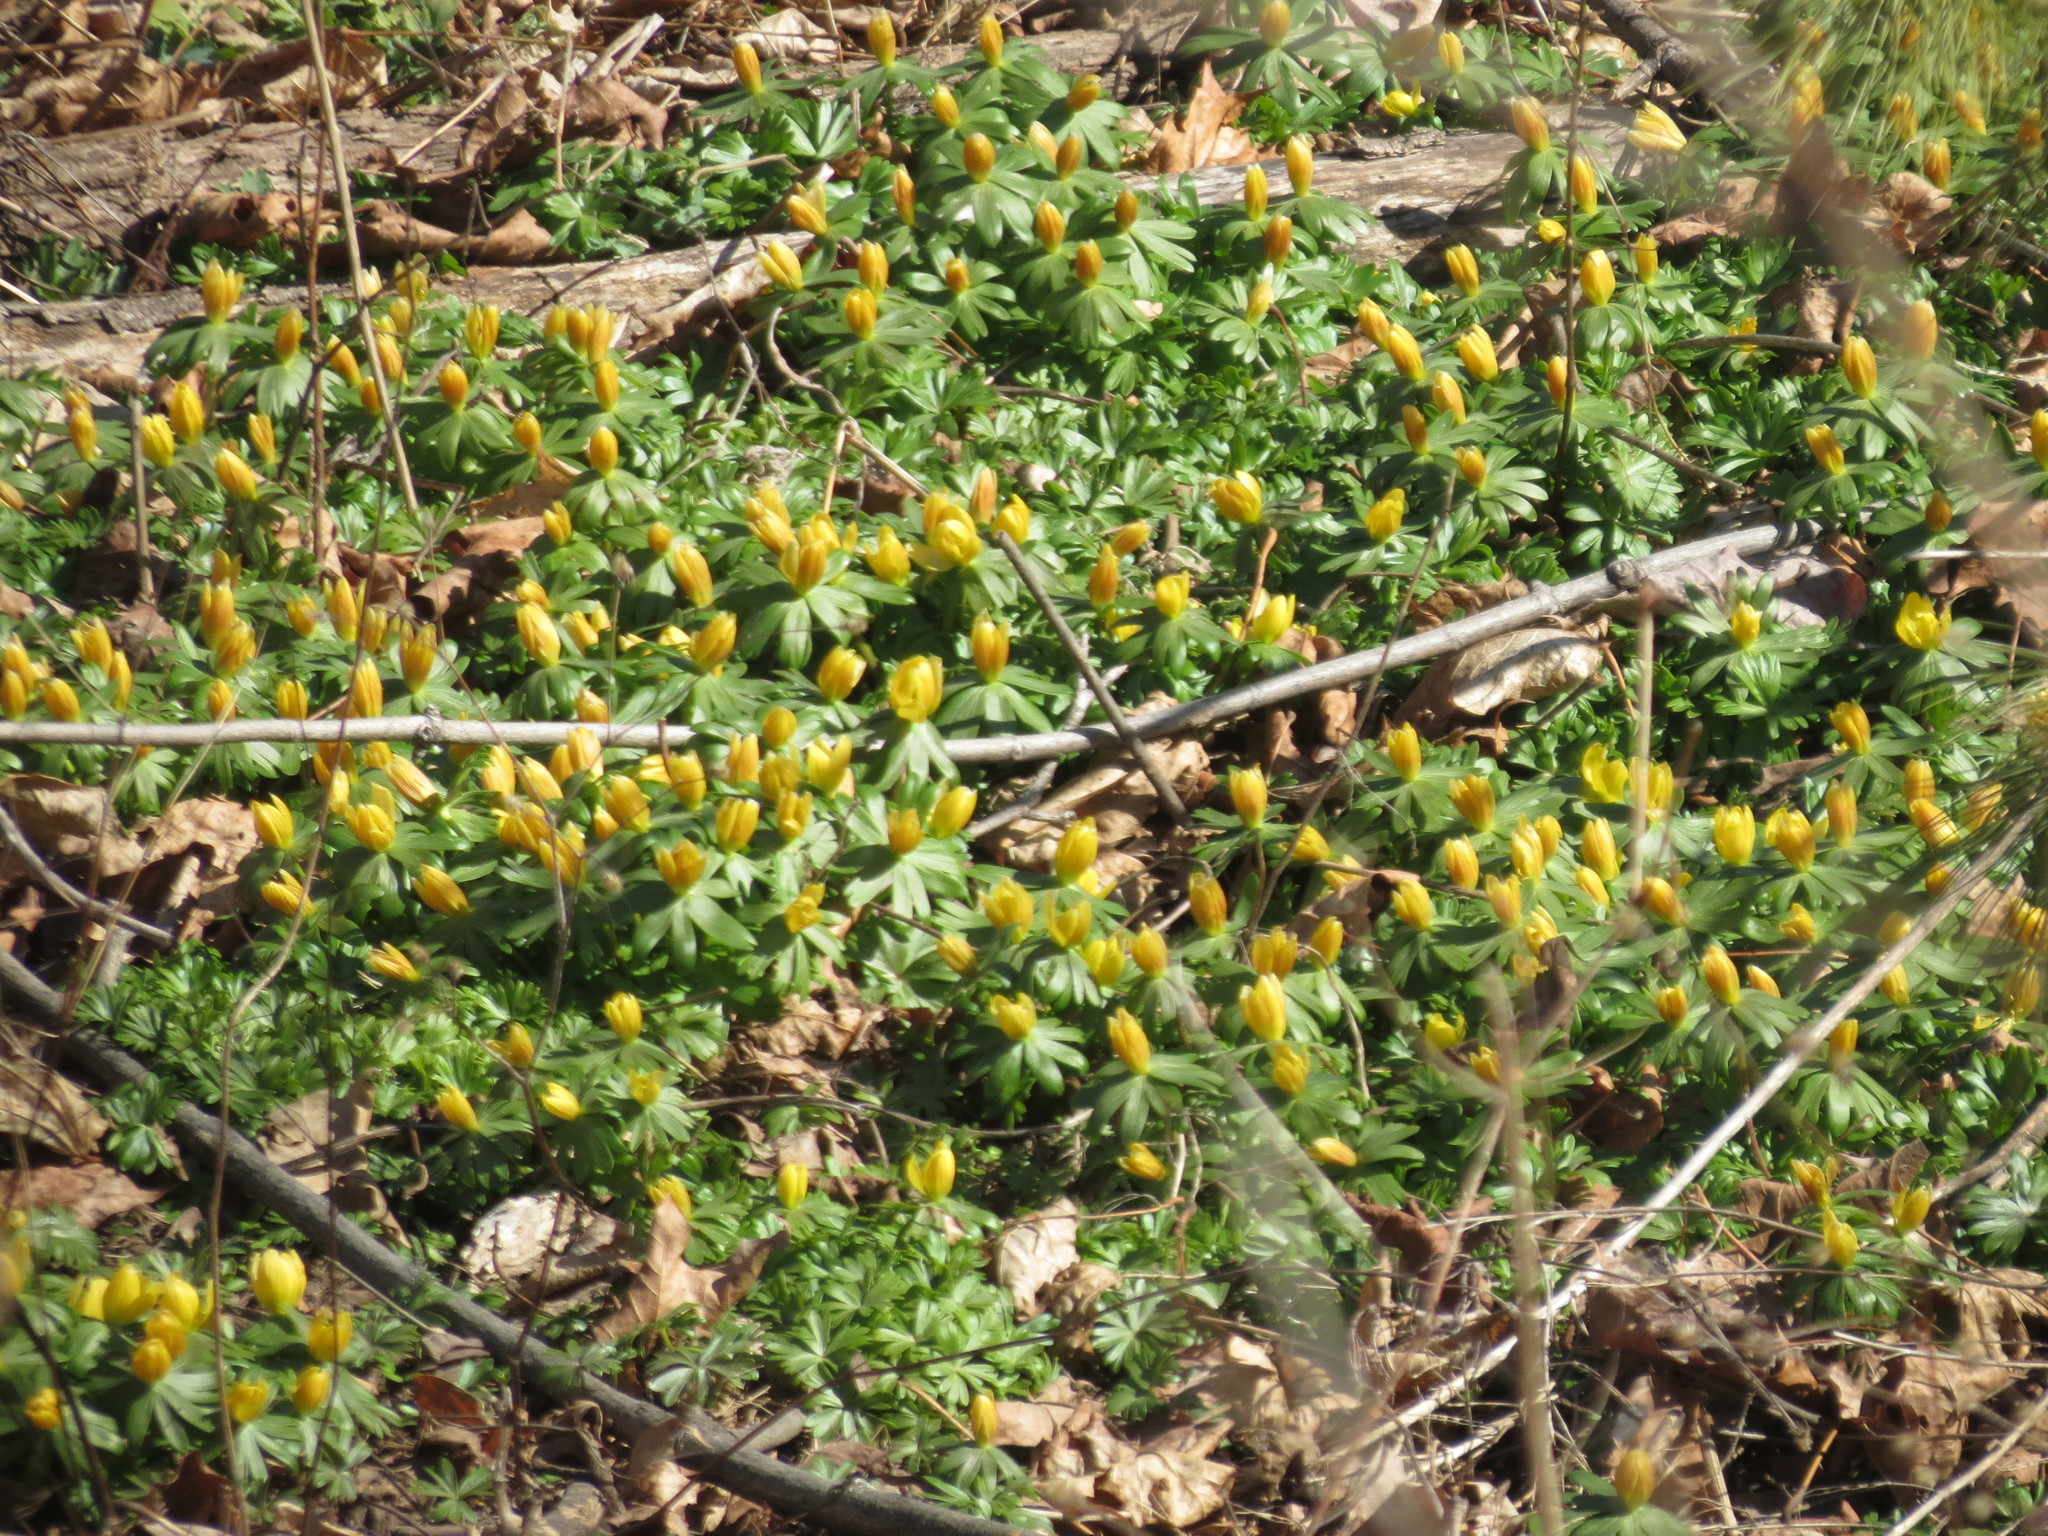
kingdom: Plantae
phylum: Tracheophyta
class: Magnoliopsida
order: Ranunculales
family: Ranunculaceae
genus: Eranthis
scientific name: Eranthis hyemalis
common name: Winter aconite
